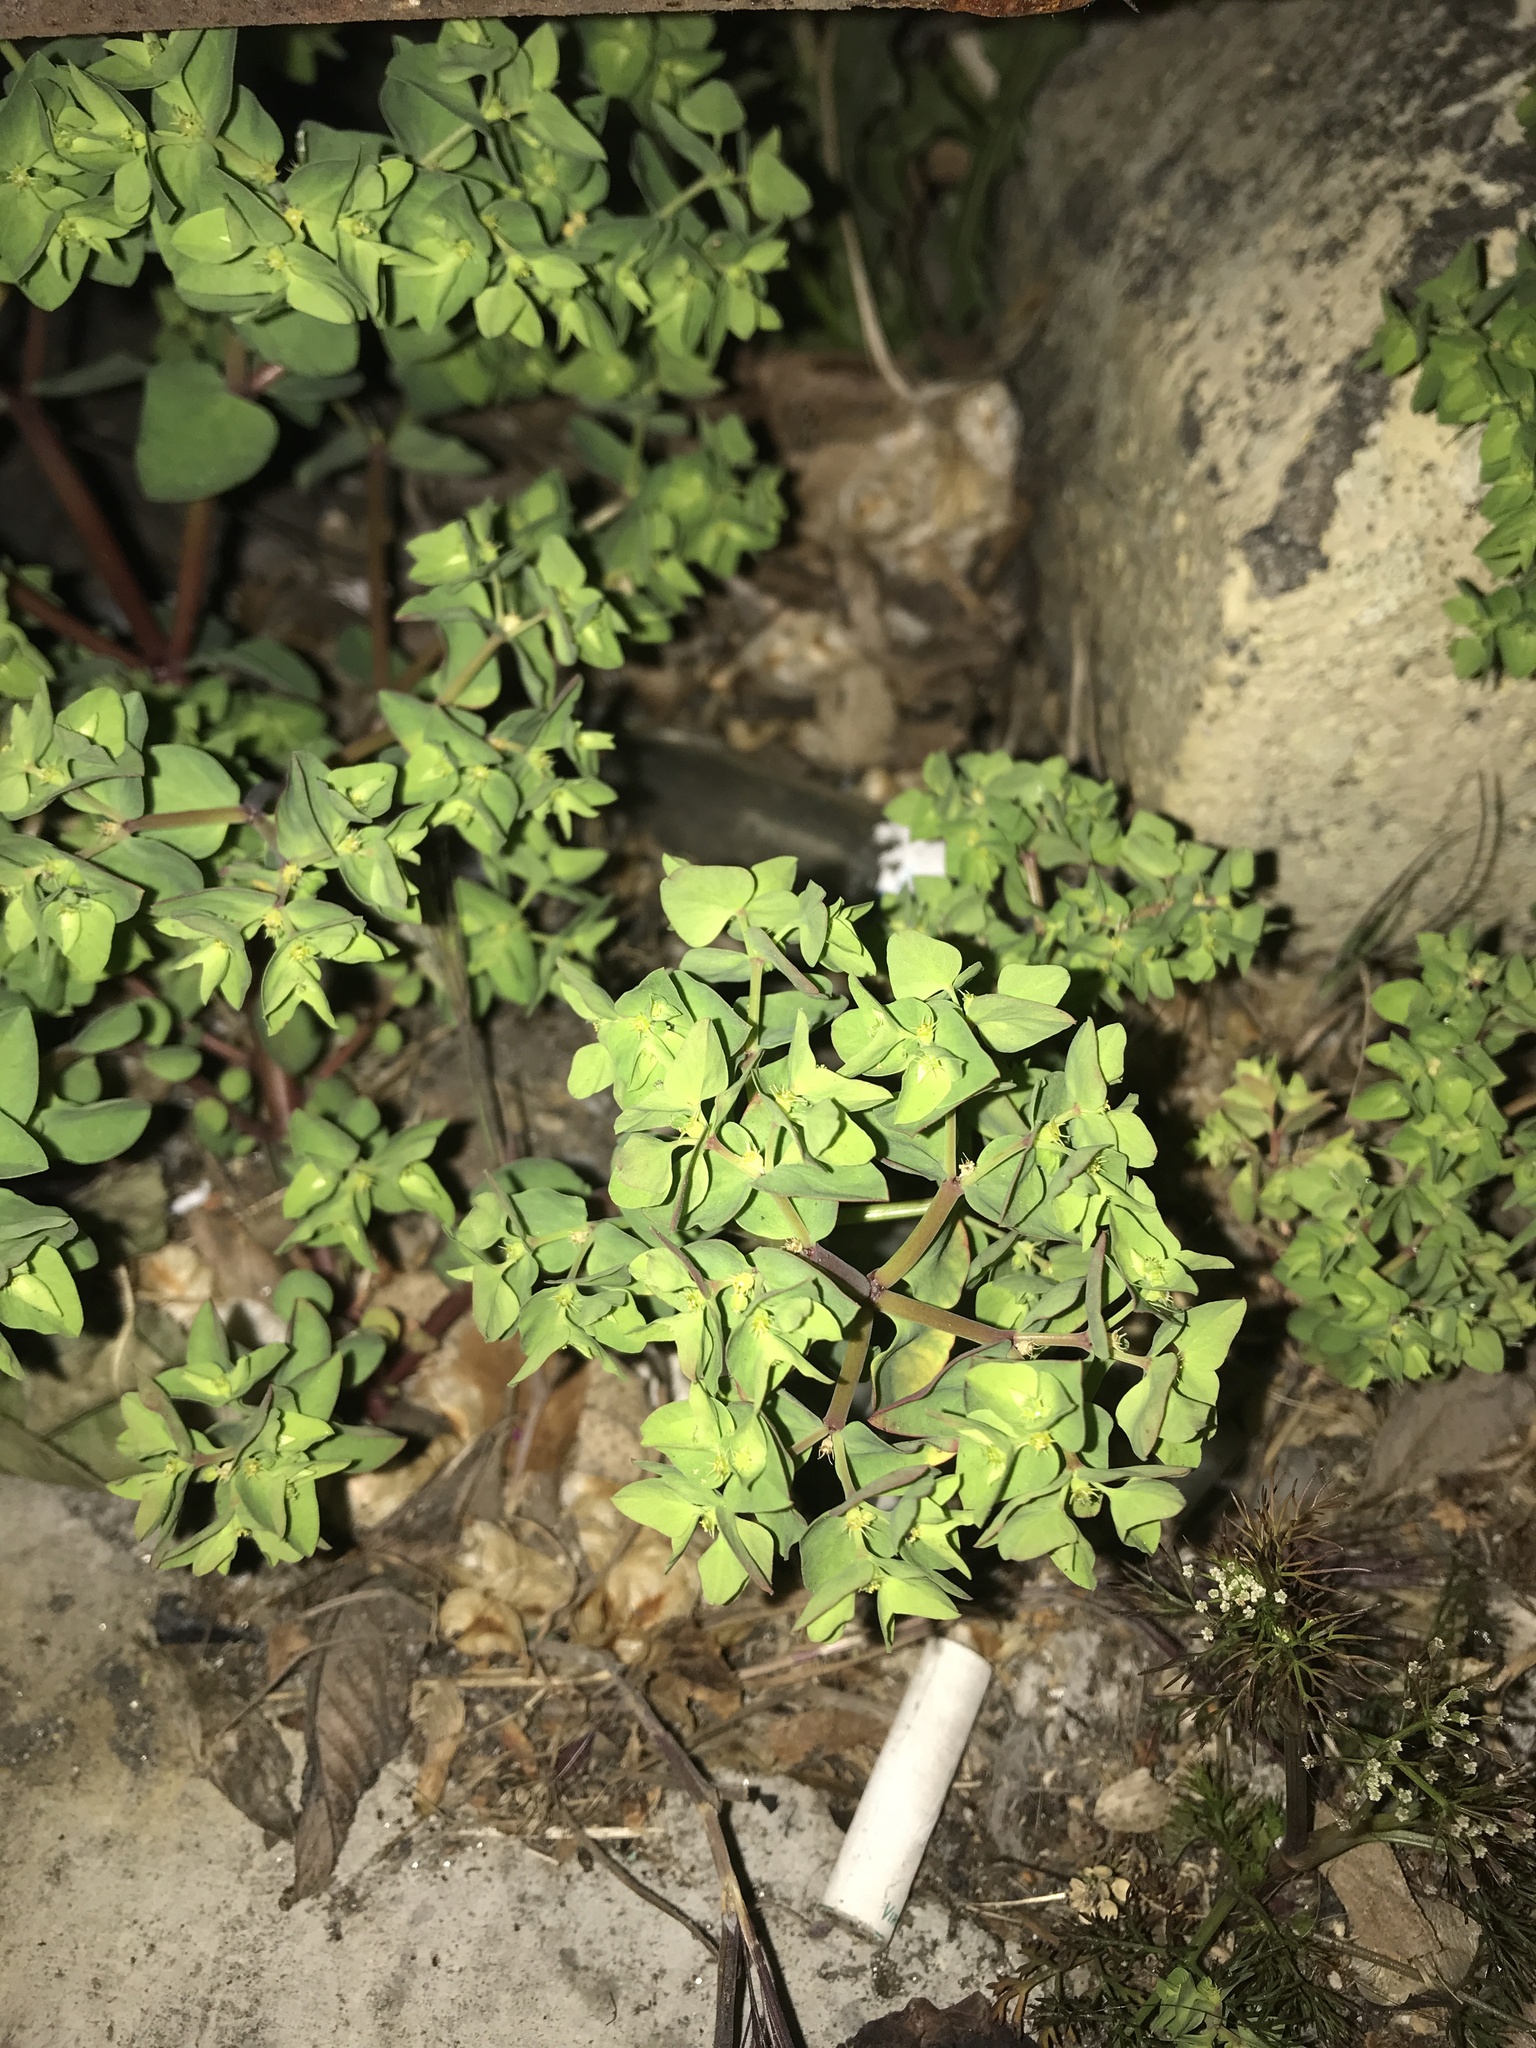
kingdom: Plantae
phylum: Tracheophyta
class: Magnoliopsida
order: Malpighiales
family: Euphorbiaceae
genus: Euphorbia
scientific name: Euphorbia peplus
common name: Petty spurge
